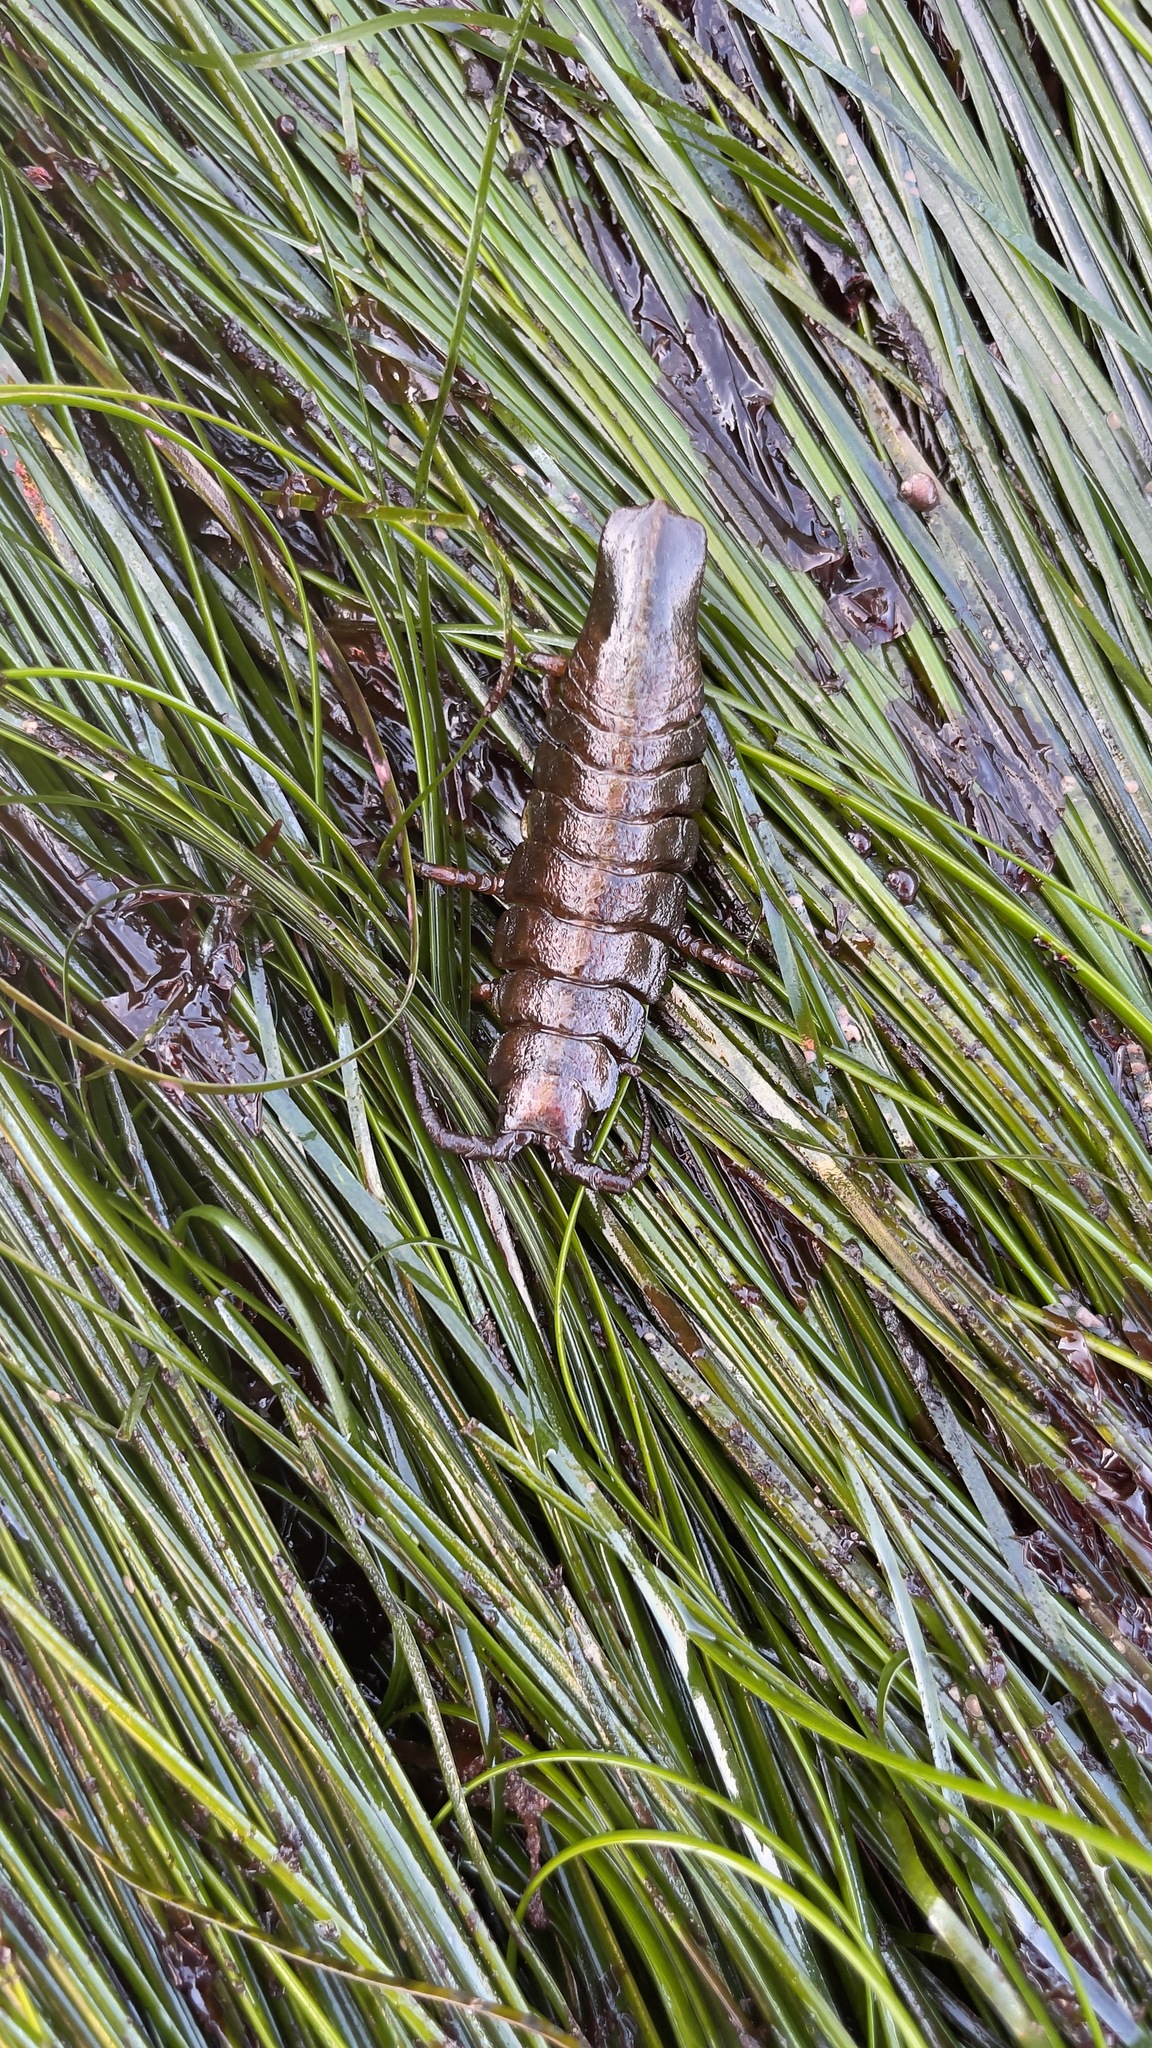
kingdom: Animalia
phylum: Arthropoda
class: Malacostraca
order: Isopoda
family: Idoteidae
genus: Pentidotea
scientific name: Pentidotea stenops
